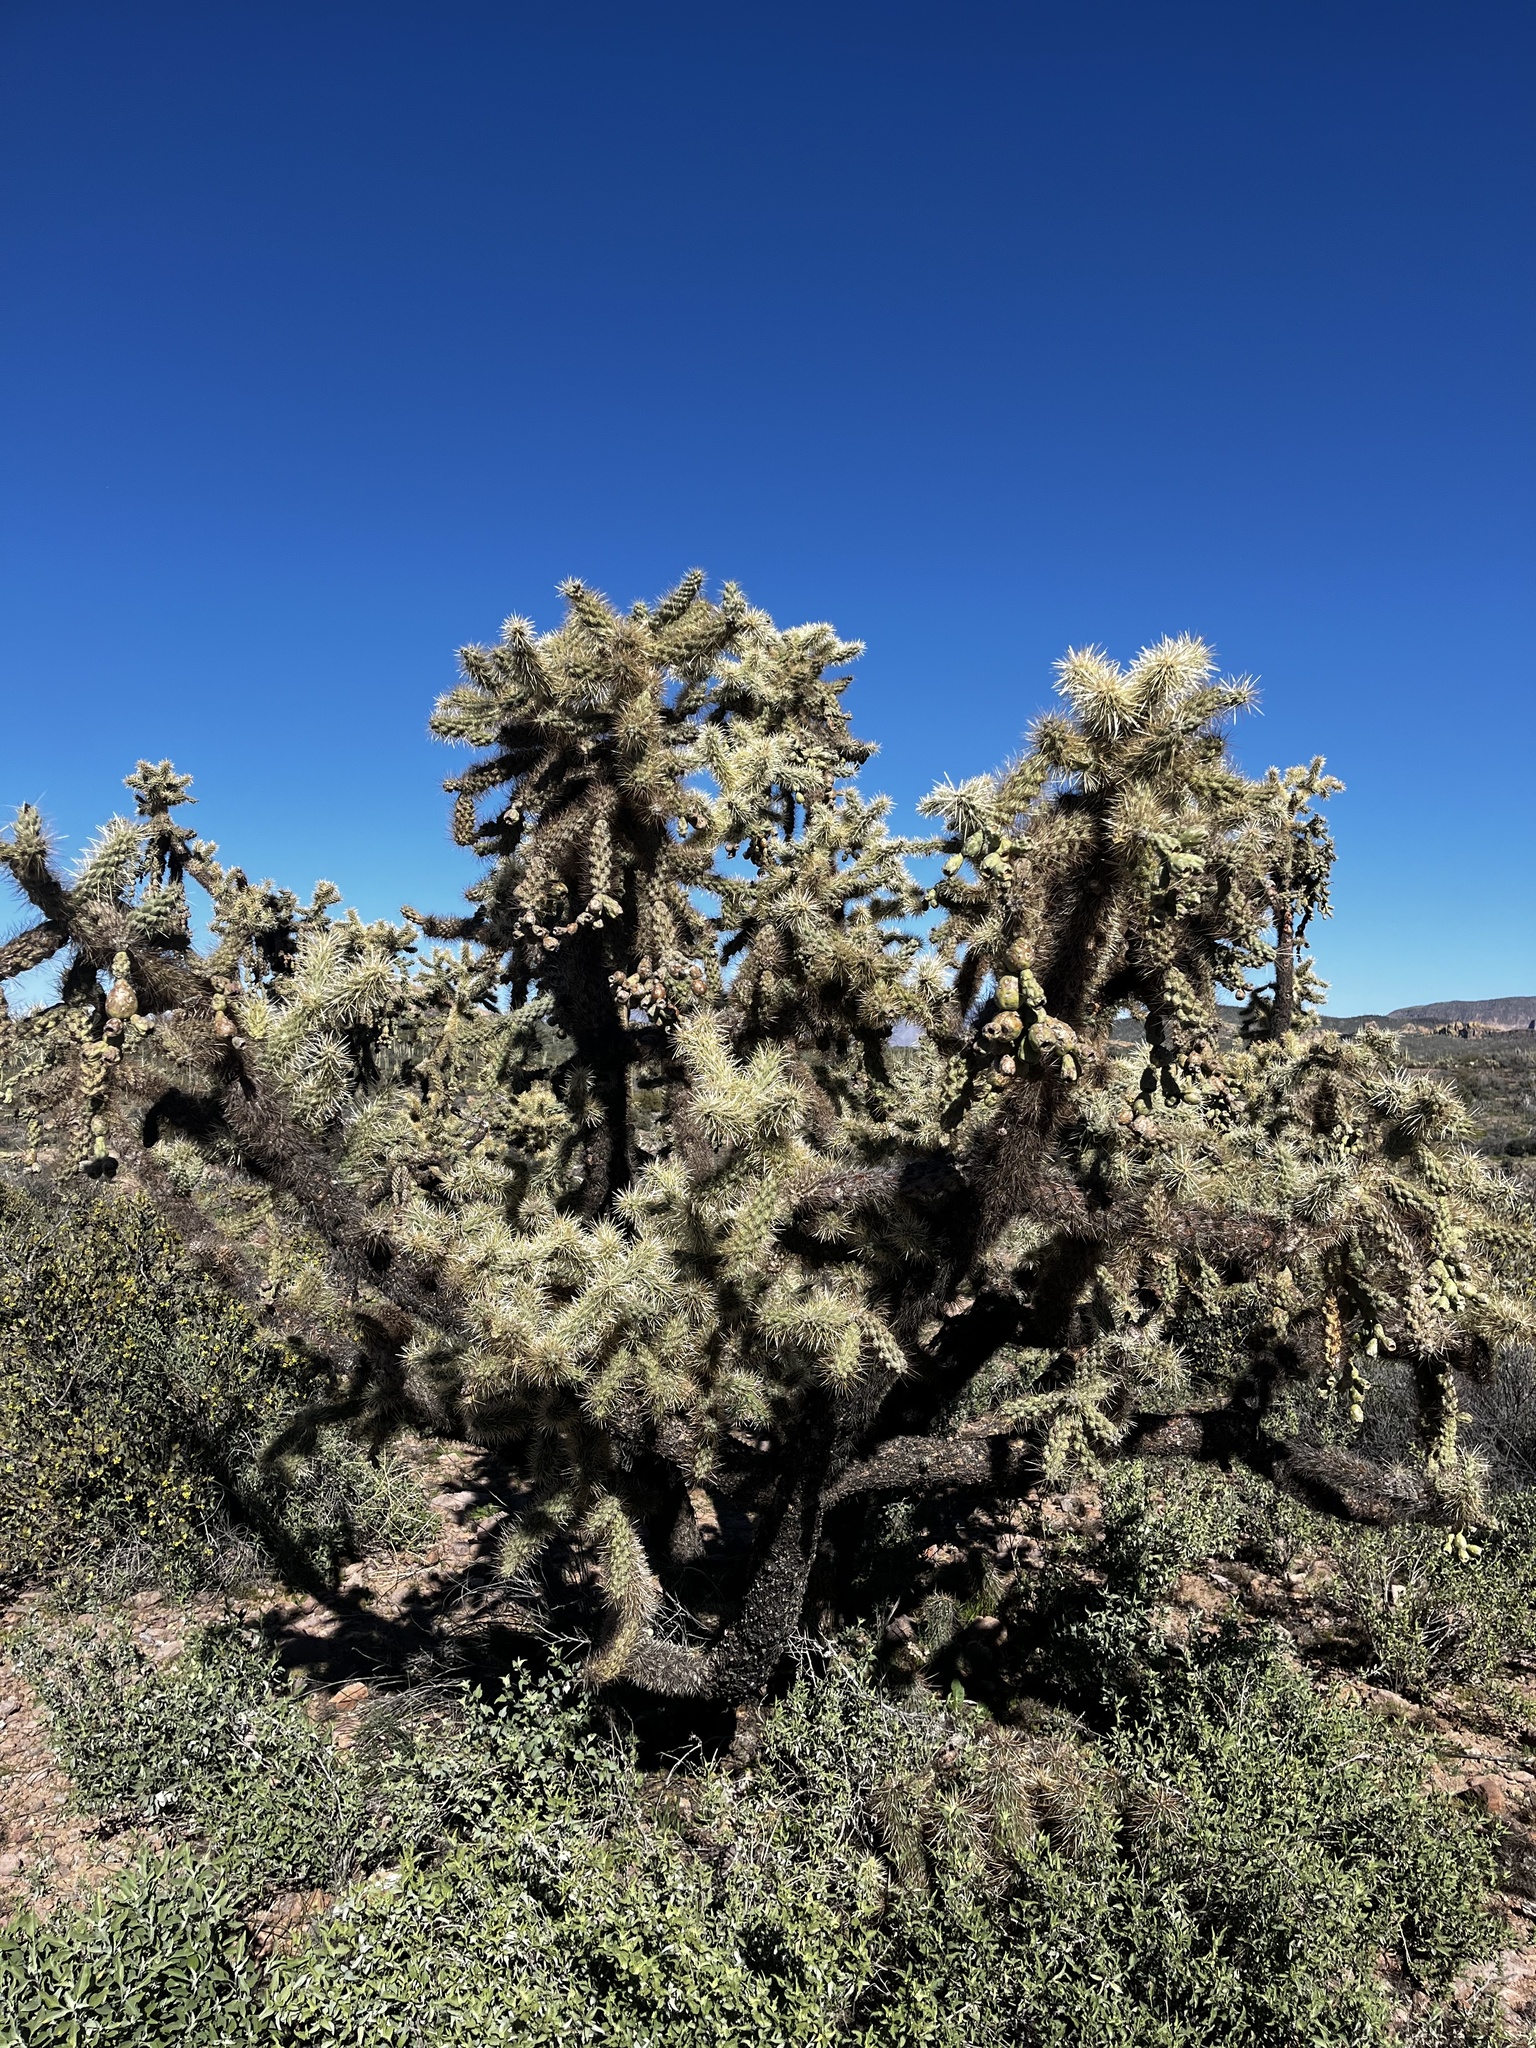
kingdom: Plantae
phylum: Tracheophyta
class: Magnoliopsida
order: Caryophyllales
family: Cactaceae
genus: Cylindropuntia
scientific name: Cylindropuntia fulgida
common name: Jumping cholla
